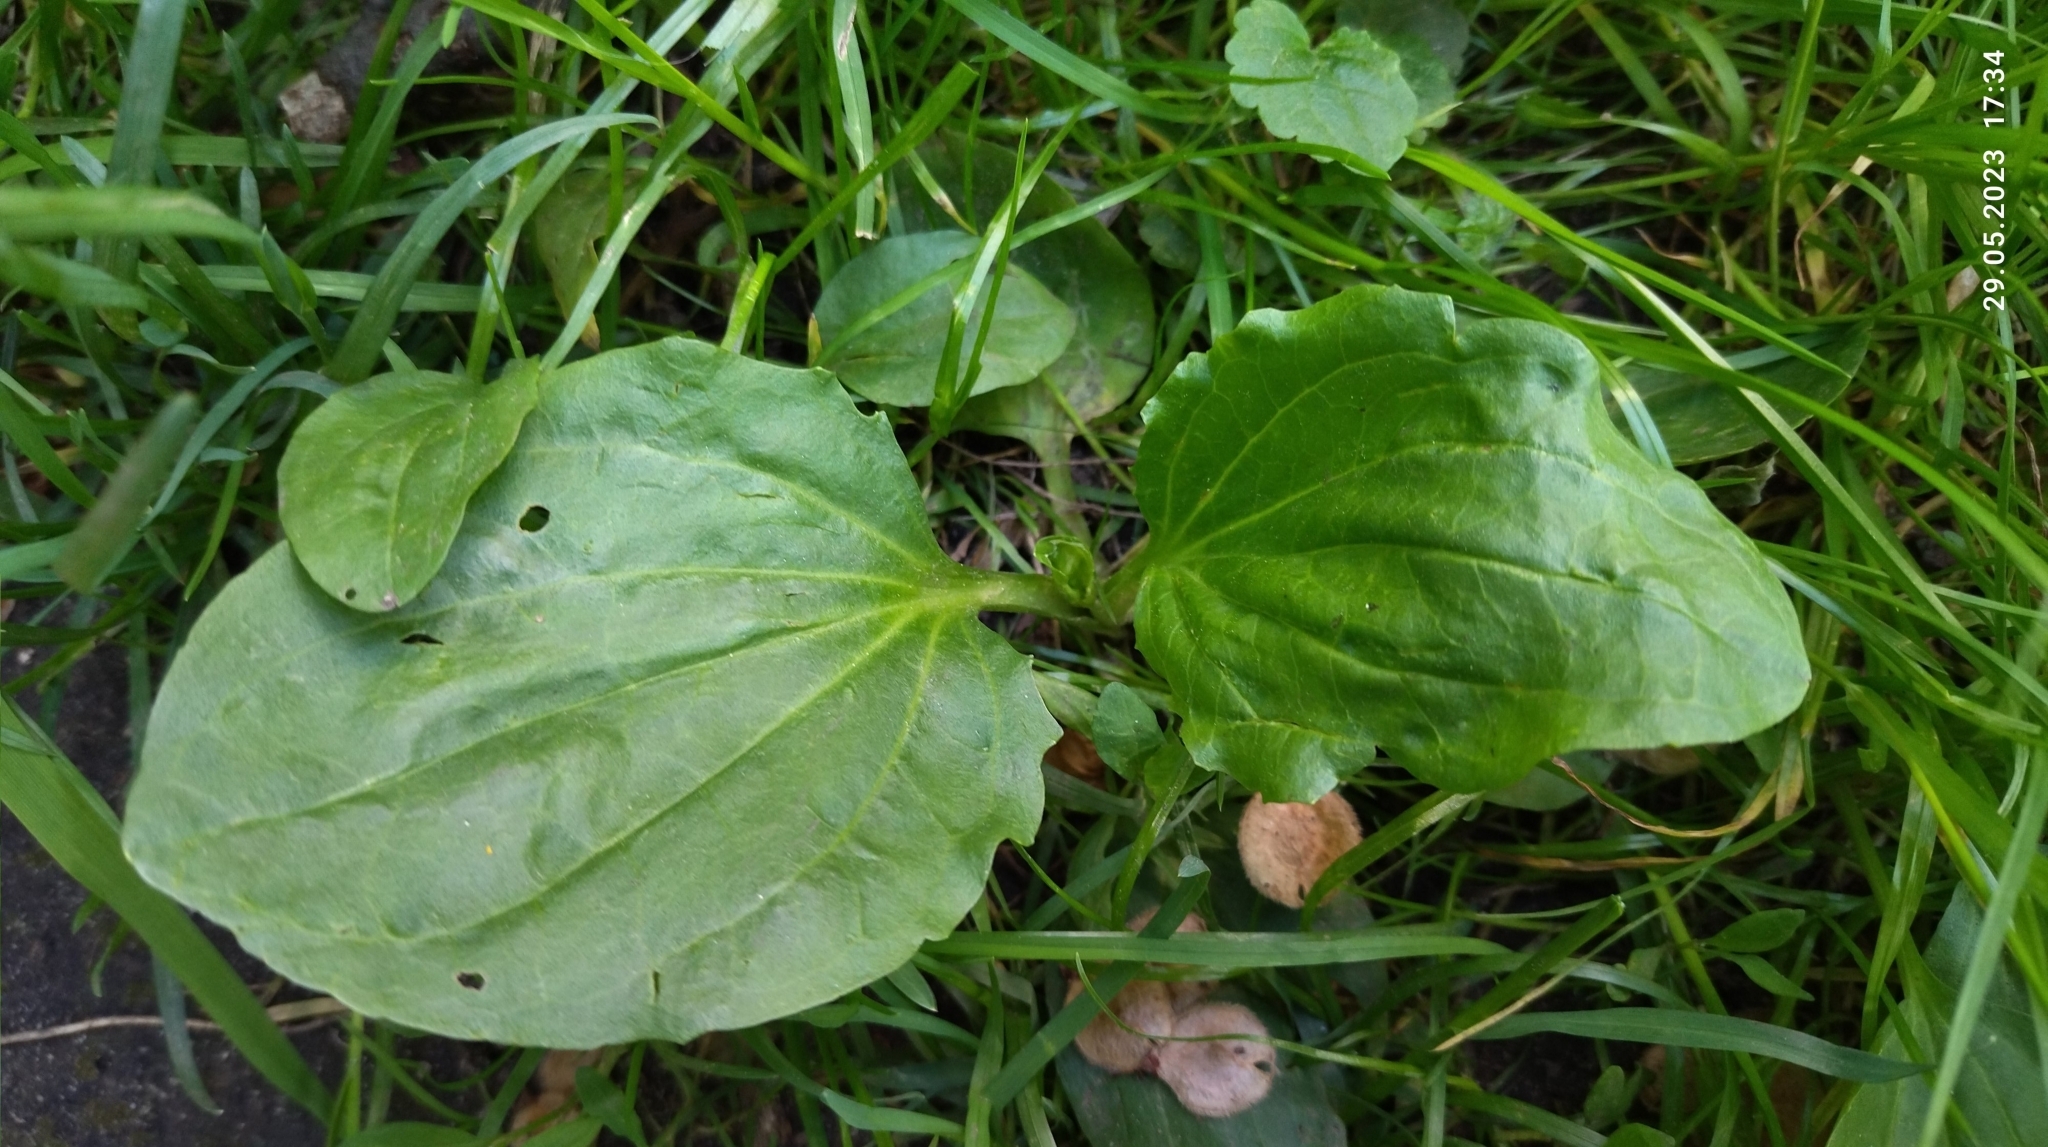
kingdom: Plantae
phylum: Tracheophyta
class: Magnoliopsida
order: Lamiales
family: Plantaginaceae
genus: Plantago
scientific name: Plantago major
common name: Common plantain
